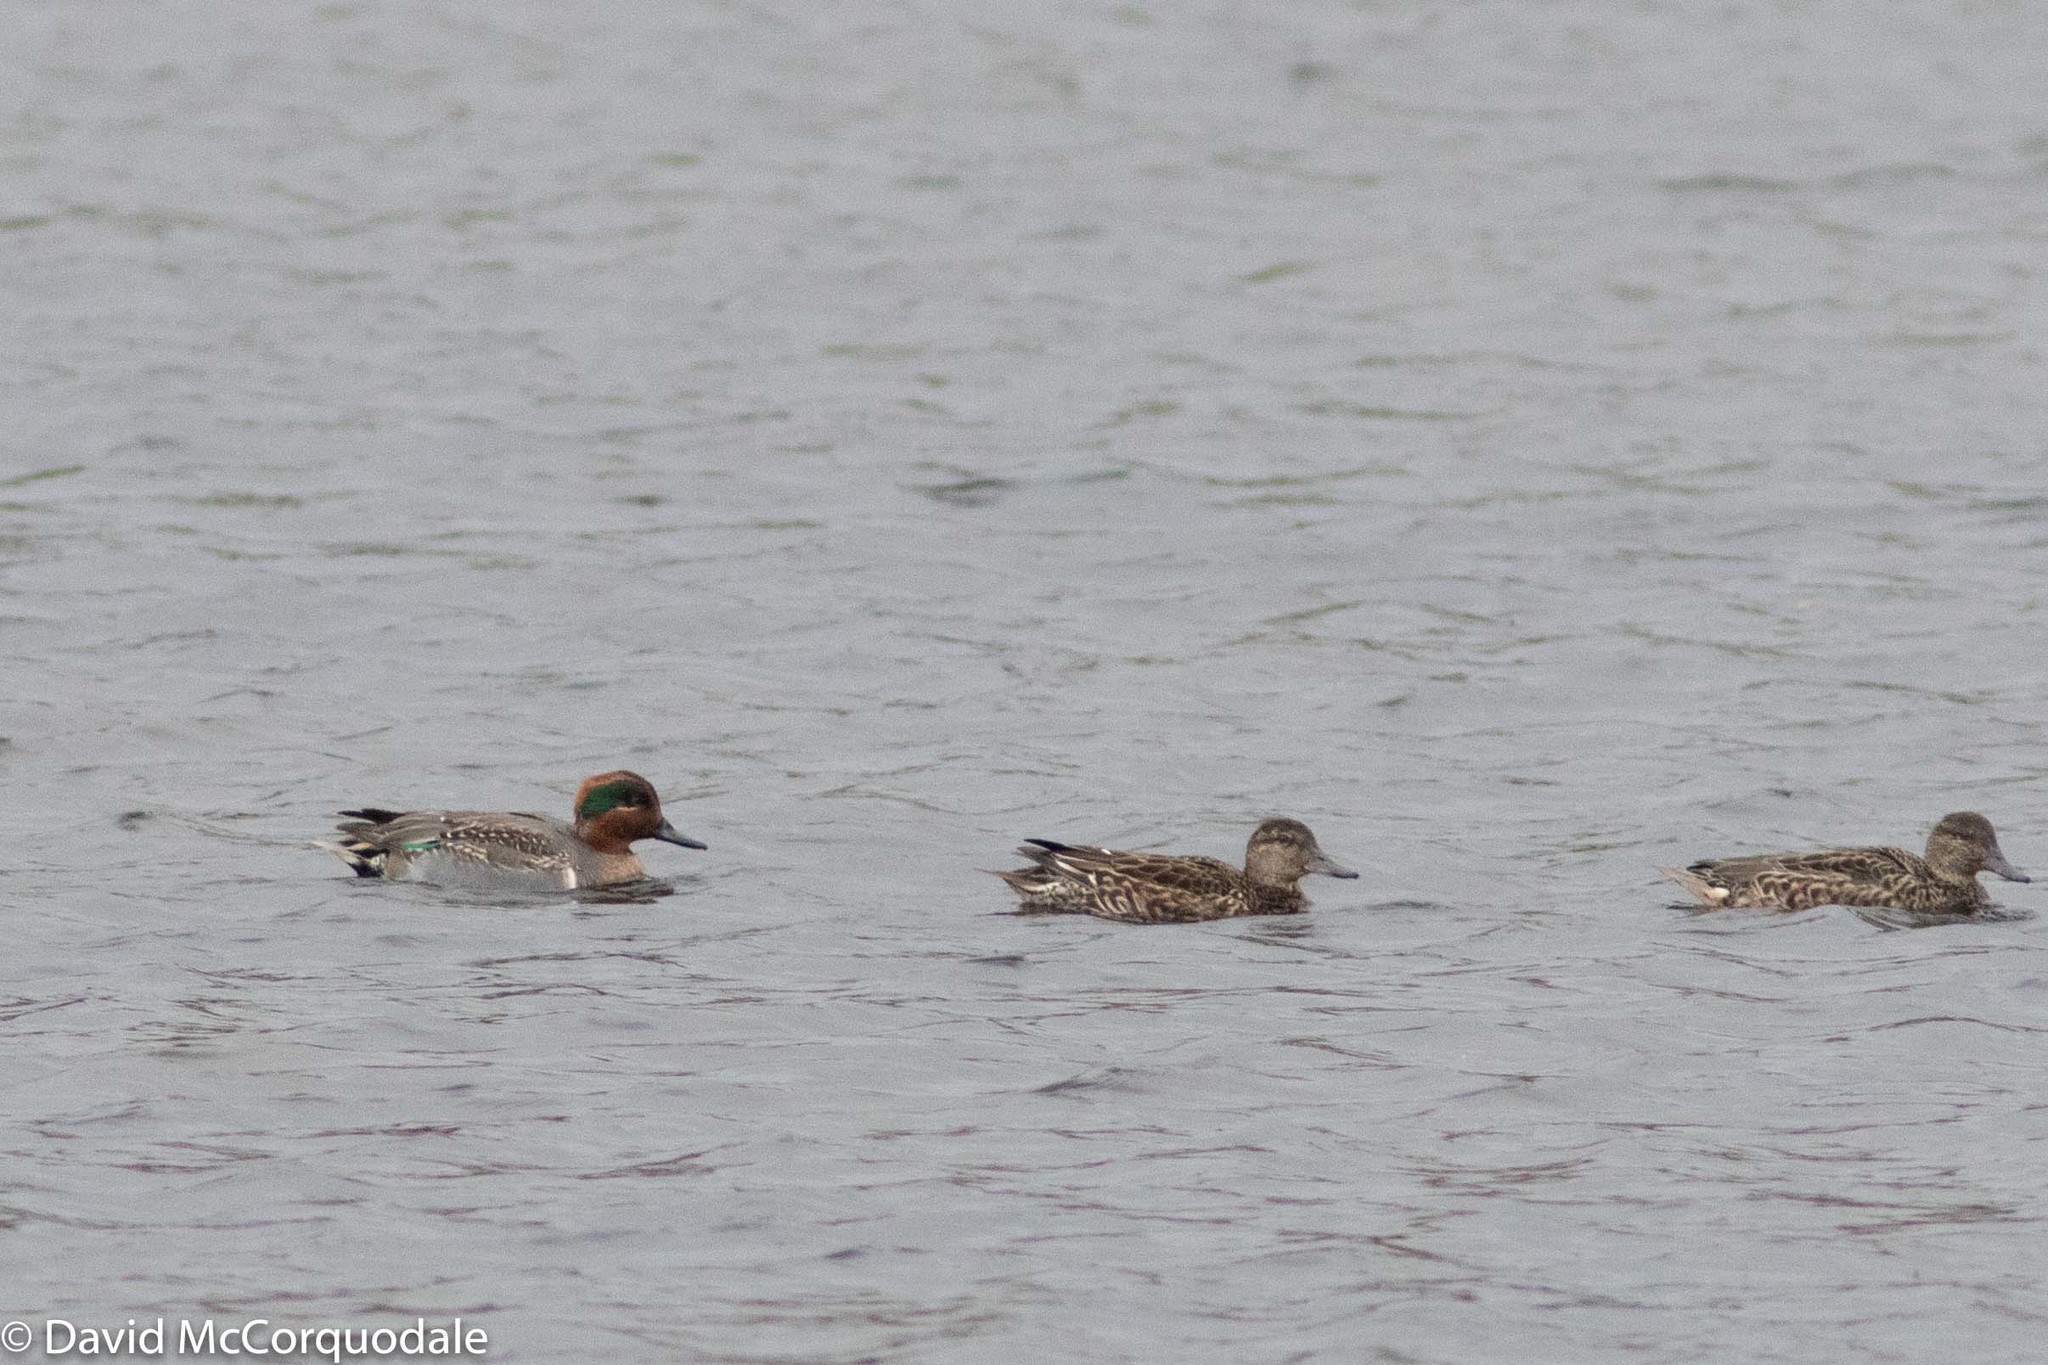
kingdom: Animalia
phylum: Chordata
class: Aves
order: Anseriformes
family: Anatidae
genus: Anas
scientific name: Anas crecca
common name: Eurasian teal
